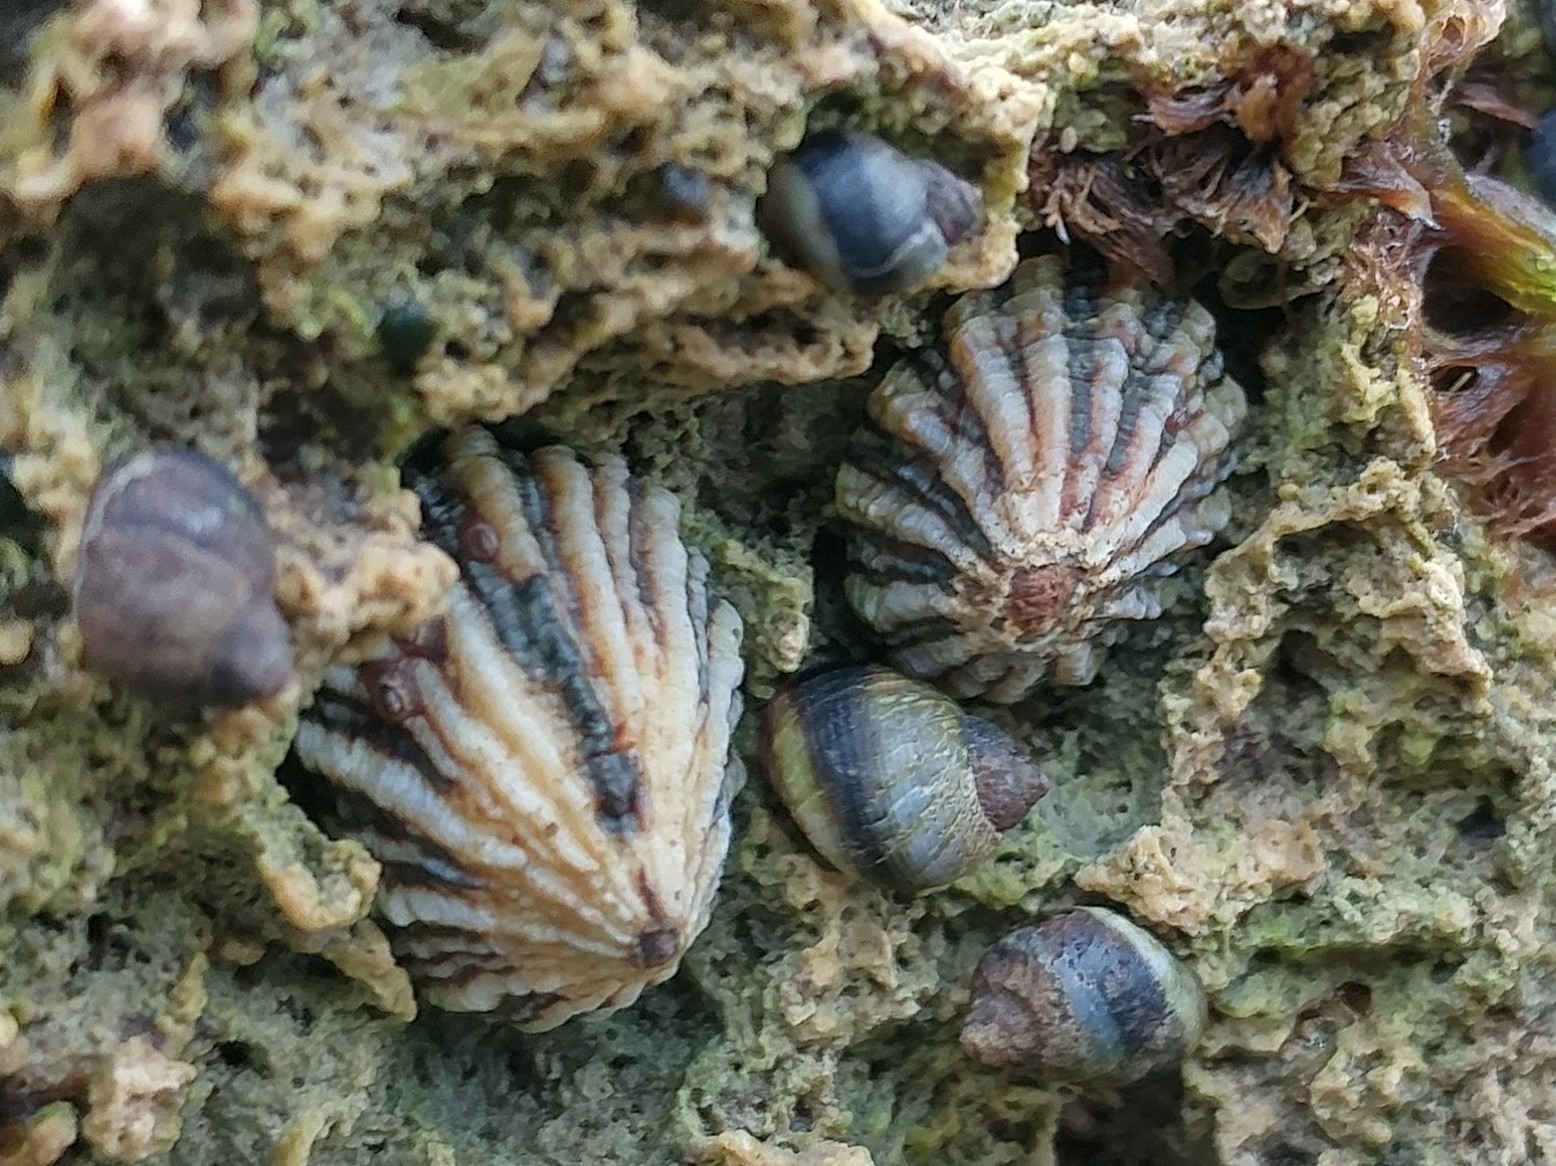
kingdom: Animalia
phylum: Mollusca
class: Gastropoda
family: Lottiidae
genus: Lottia
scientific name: Lottia scabra
